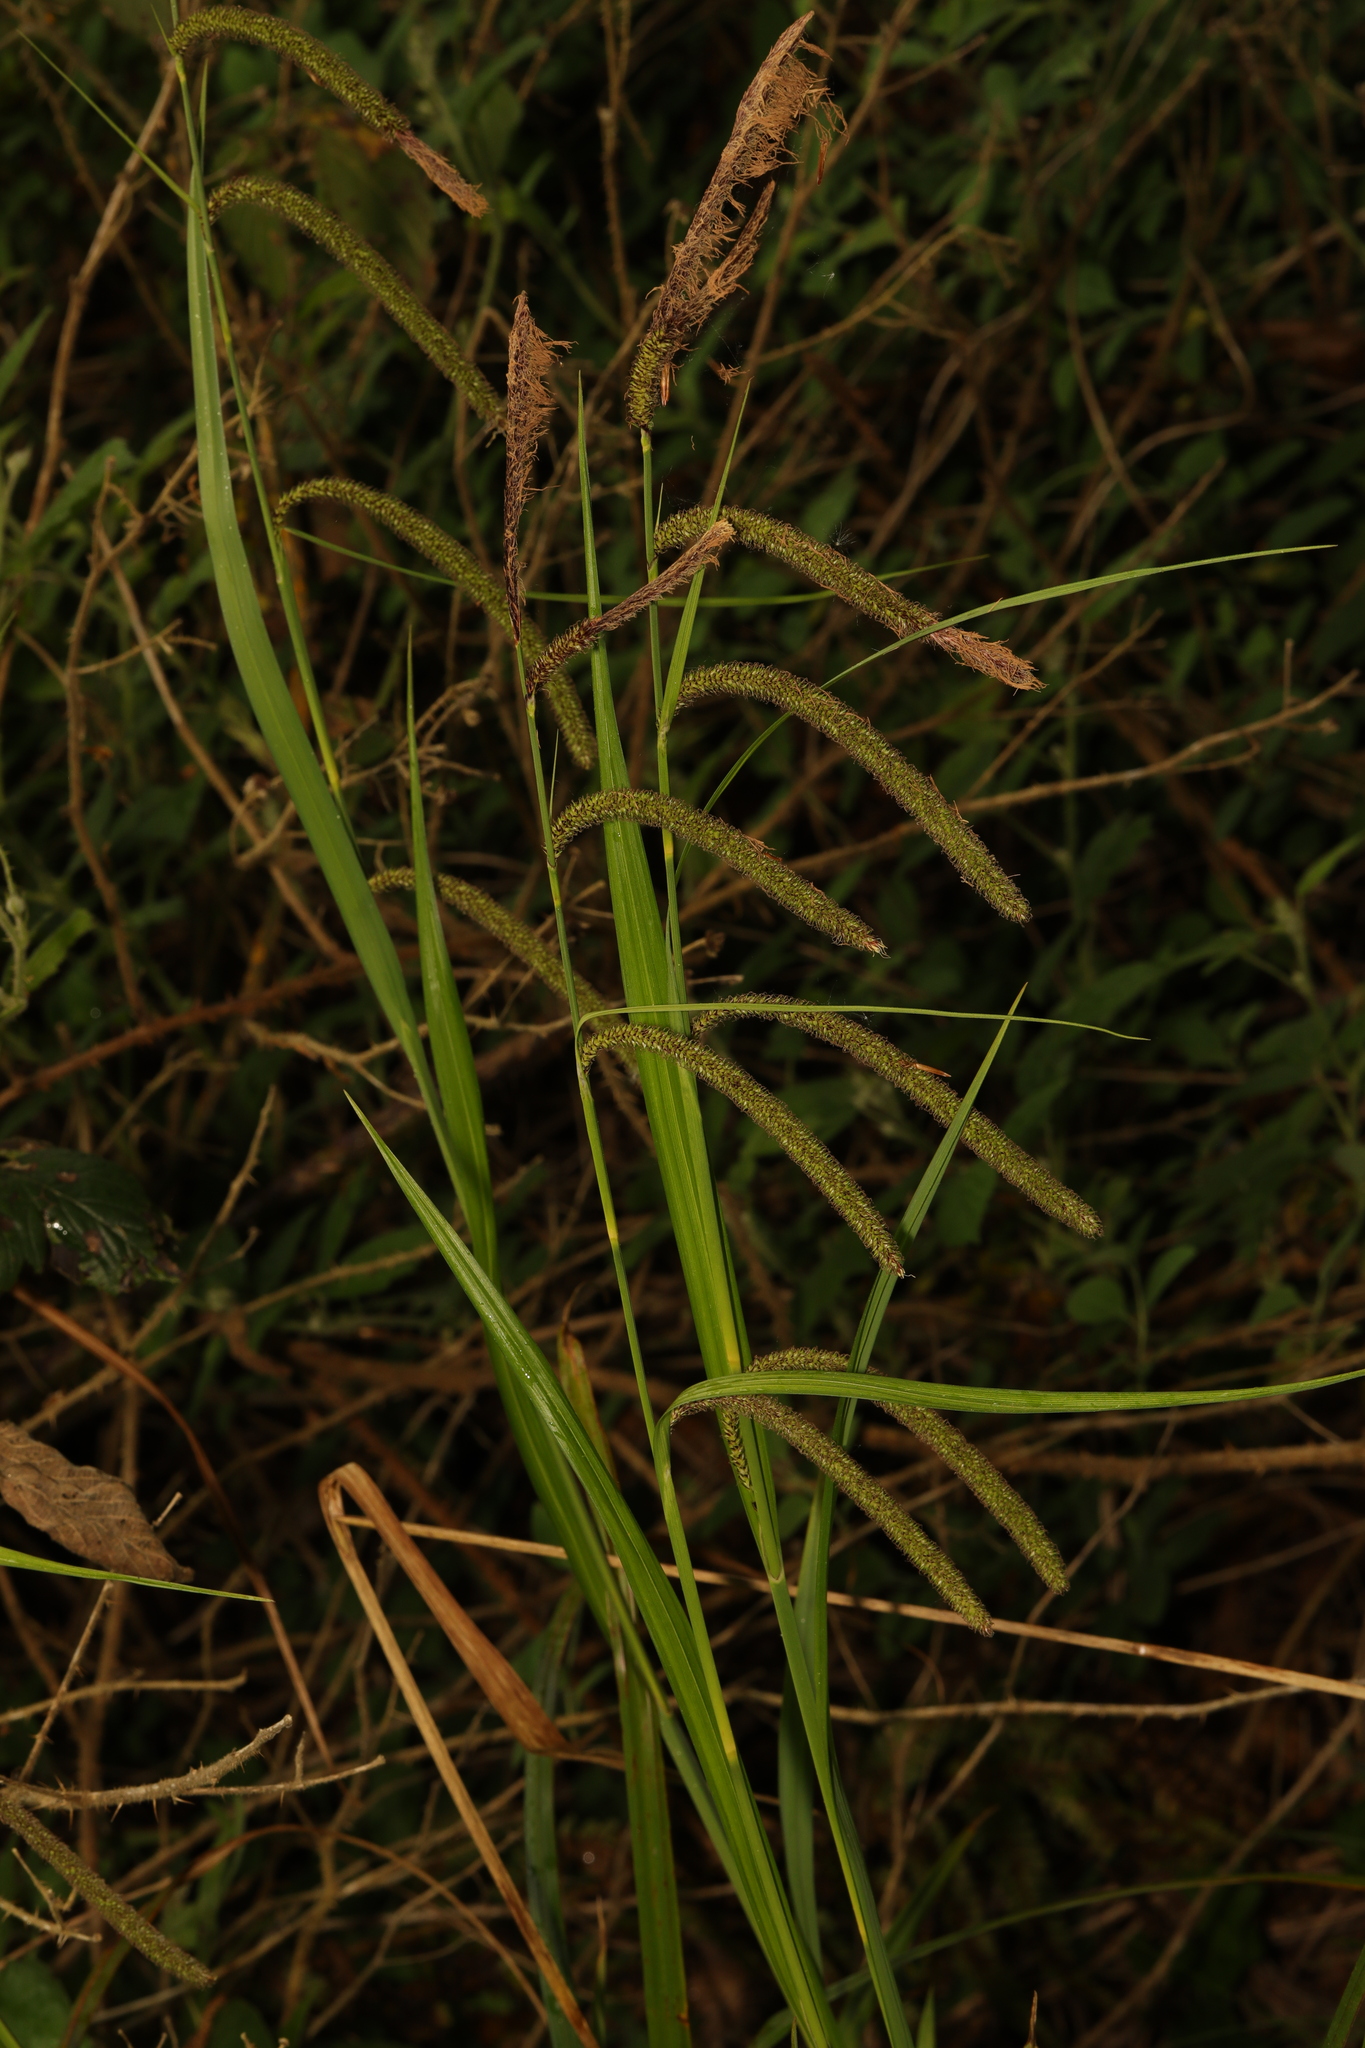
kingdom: Plantae
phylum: Tracheophyta
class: Liliopsida
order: Poales
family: Cyperaceae
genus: Carex
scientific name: Carex pendula
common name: Pendulous sedge
